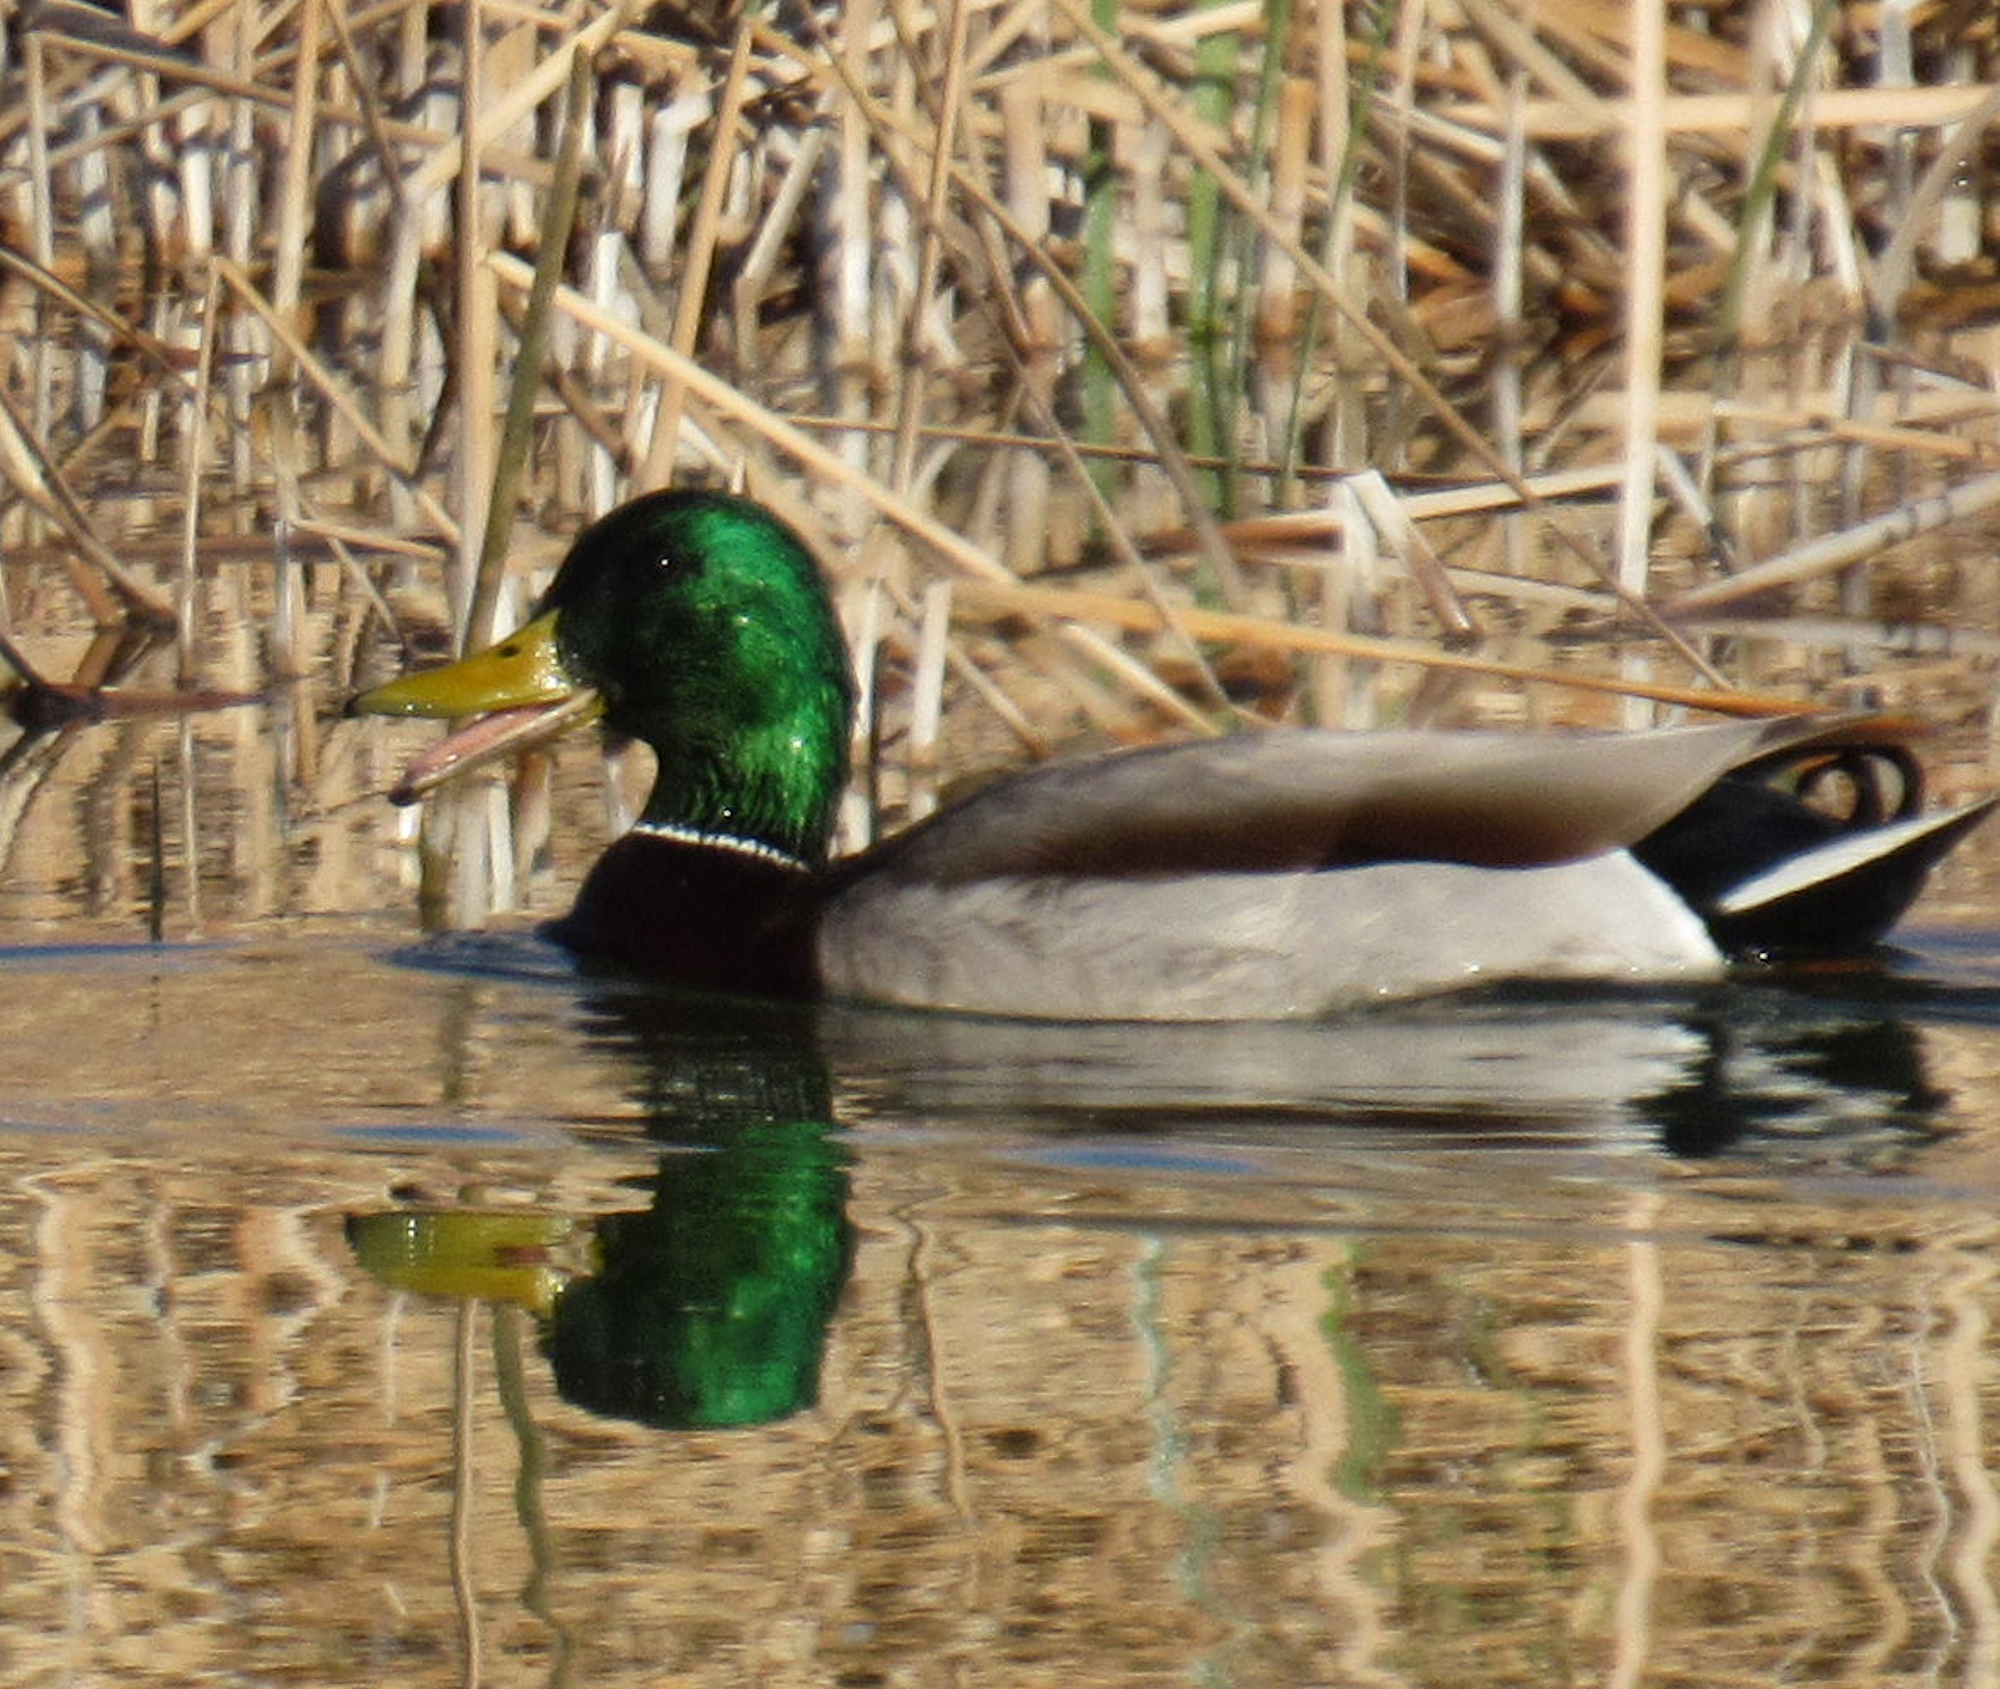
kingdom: Animalia
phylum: Chordata
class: Aves
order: Anseriformes
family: Anatidae
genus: Anas
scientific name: Anas platyrhynchos
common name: Mallard
